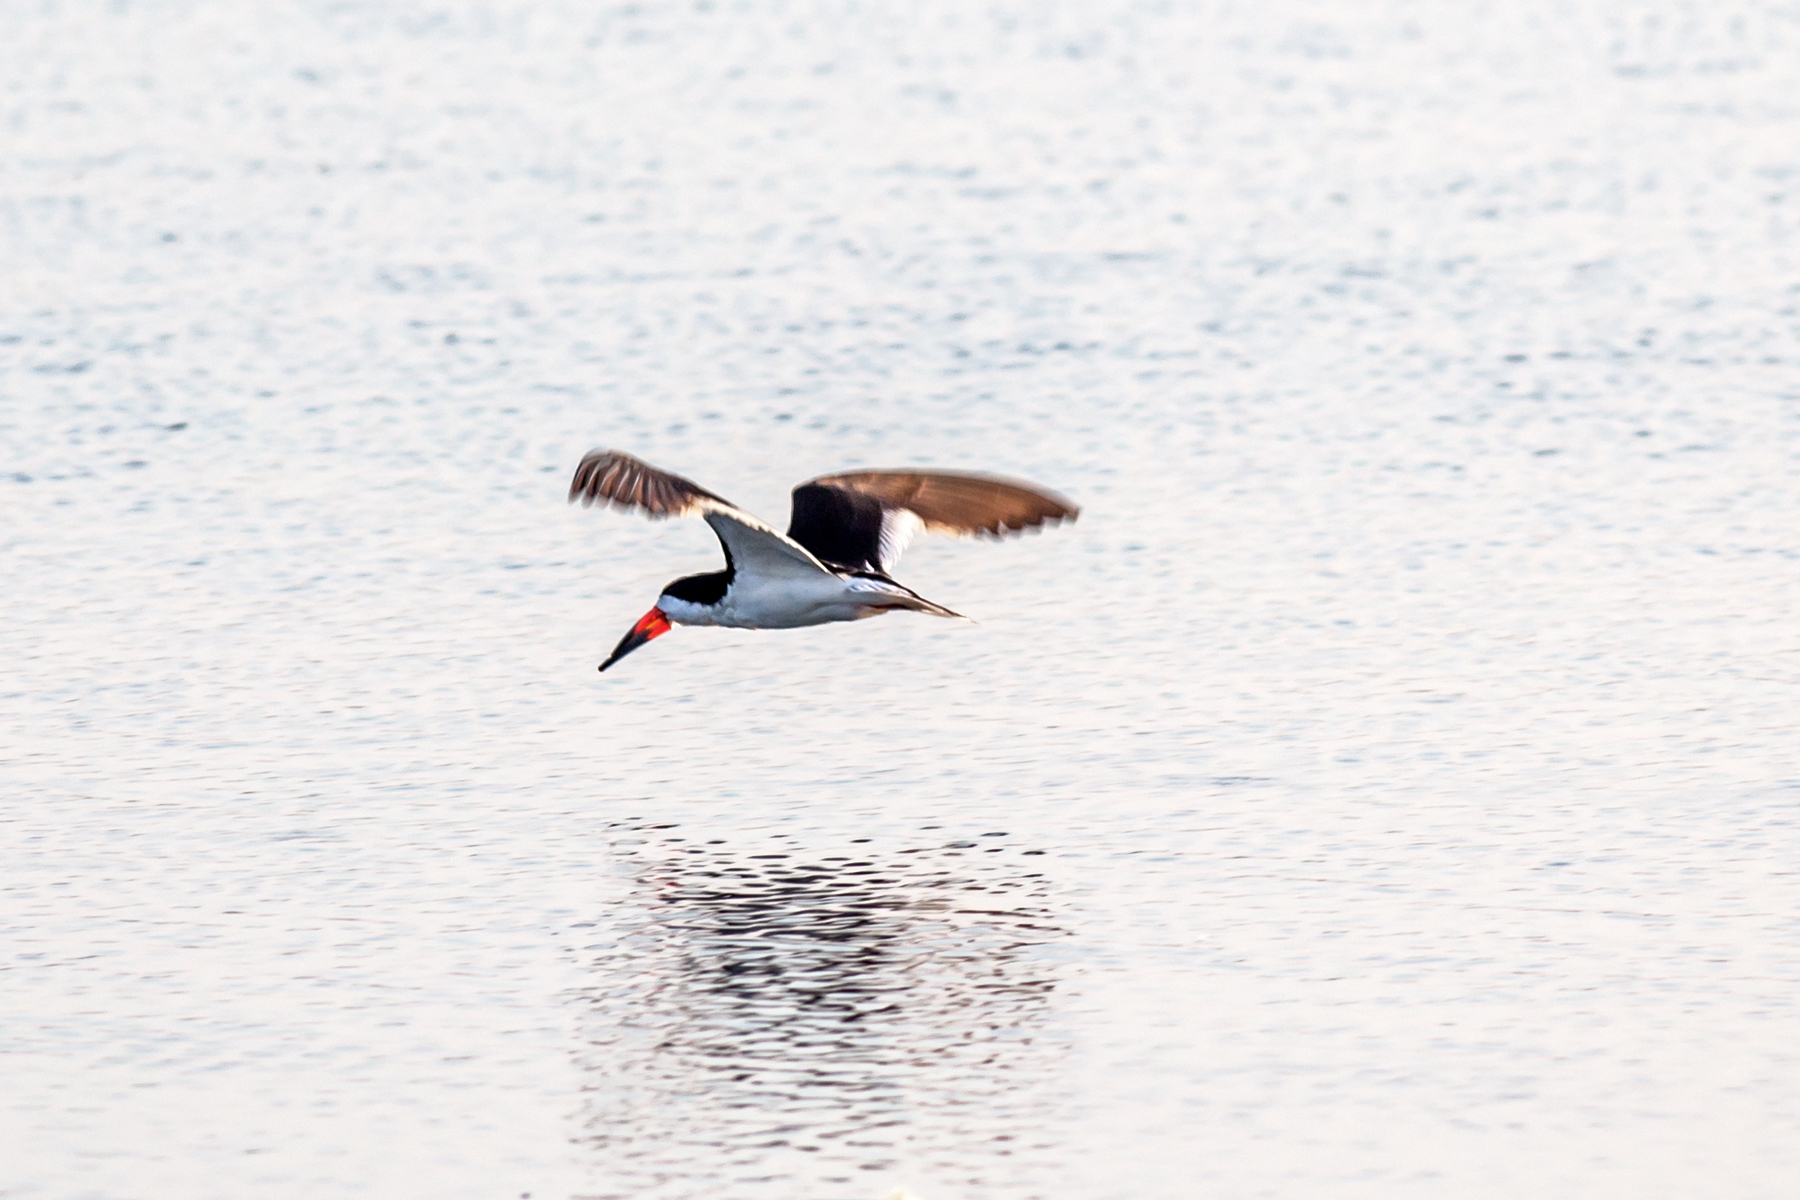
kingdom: Animalia
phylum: Chordata
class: Aves
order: Charadriiformes
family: Laridae
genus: Rynchops
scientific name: Rynchops niger
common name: Black skimmer
